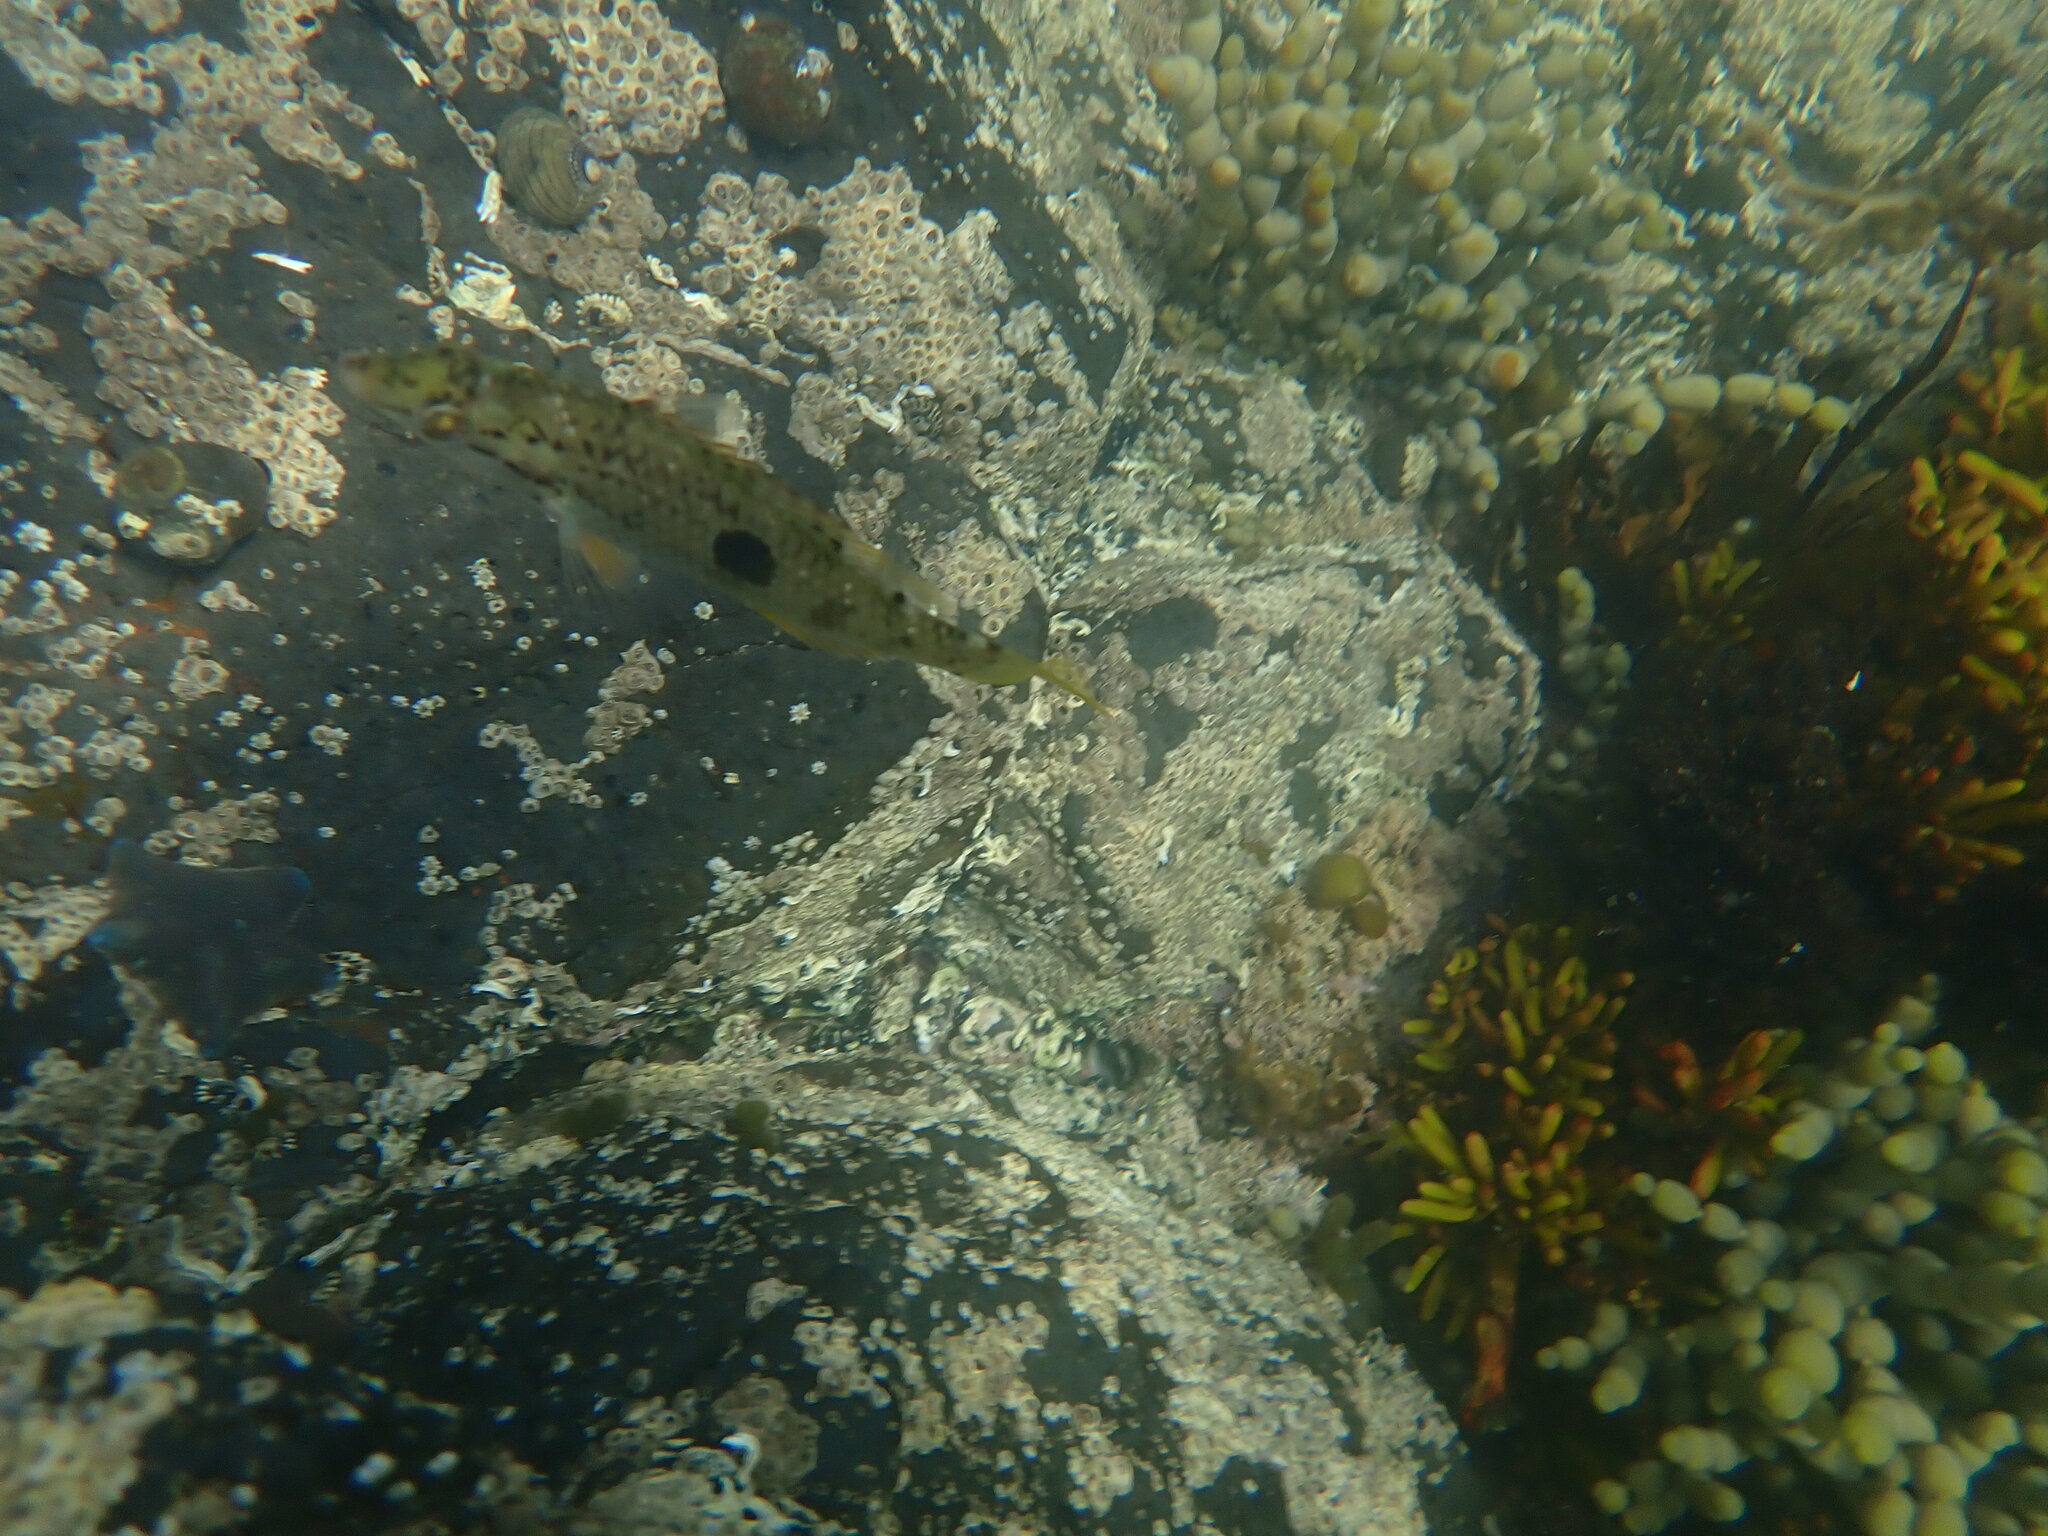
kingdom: Animalia
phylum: Chordata
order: Perciformes
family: Labridae
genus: Notolabrus
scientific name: Notolabrus celidotus
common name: Spotty
